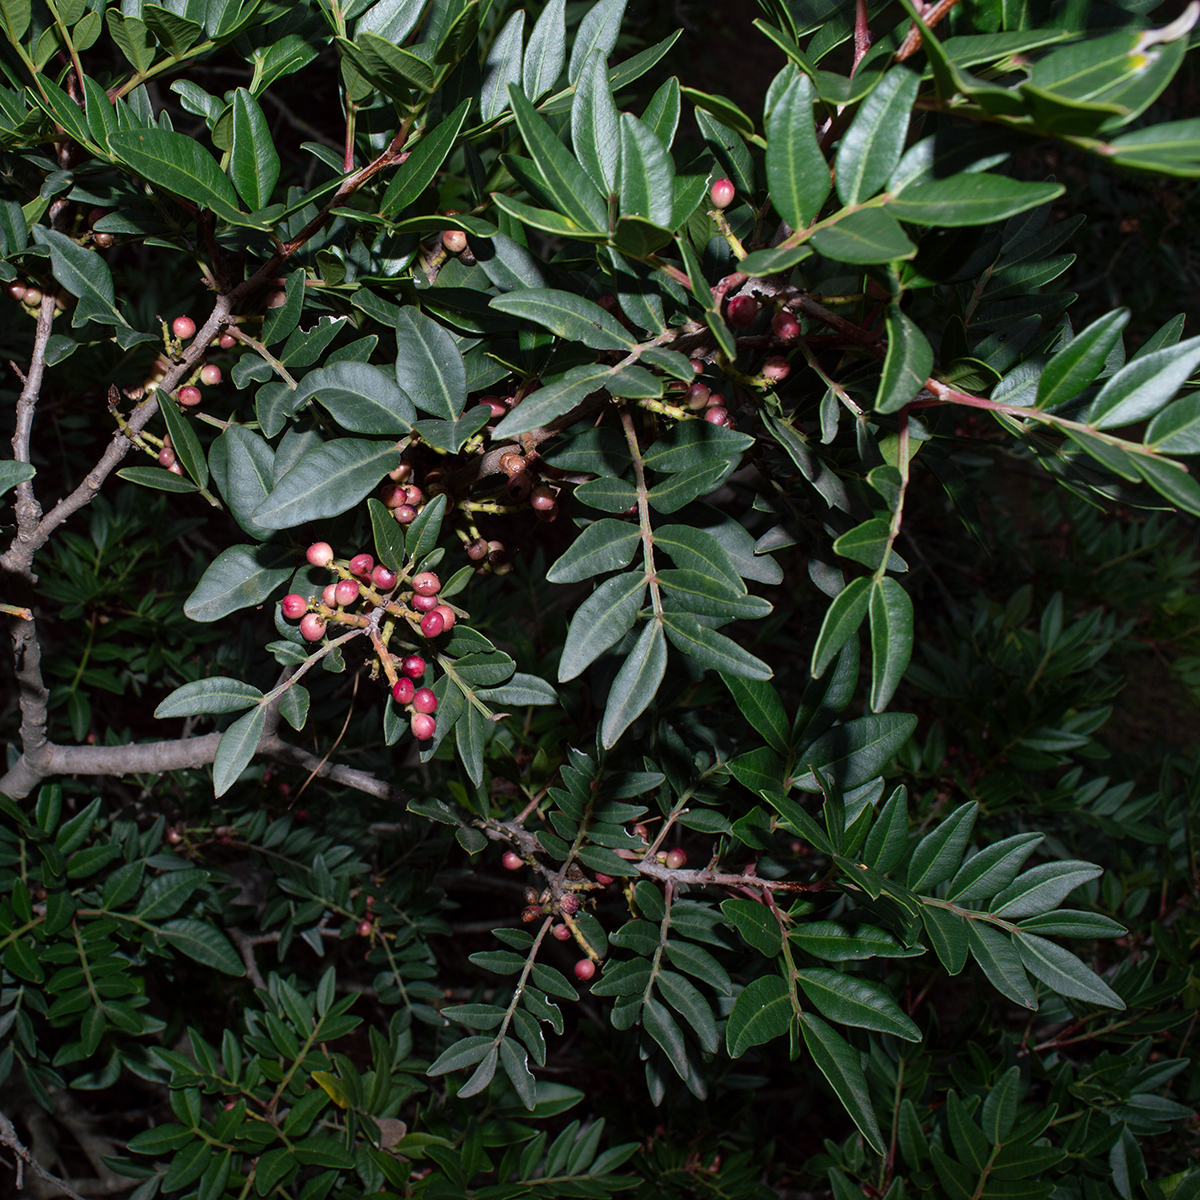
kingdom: Plantae
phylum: Tracheophyta
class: Magnoliopsida
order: Sapindales
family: Anacardiaceae
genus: Pistacia
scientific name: Pistacia lentiscus
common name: Lentisk
